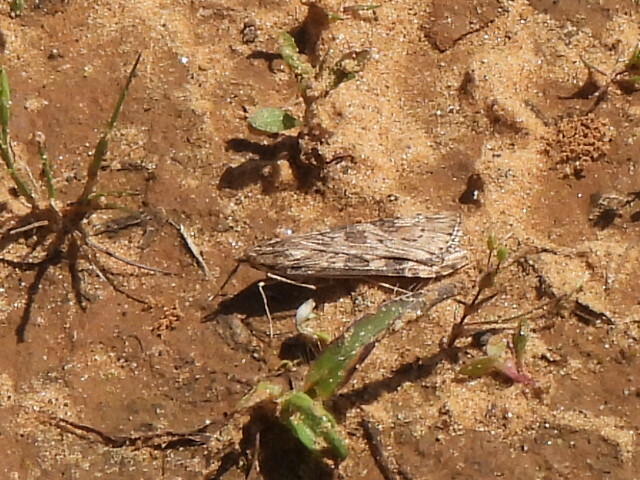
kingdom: Animalia
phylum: Arthropoda
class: Insecta
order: Lepidoptera
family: Crambidae
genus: Nomophila
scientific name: Nomophila nearctica
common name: American rush veneer
